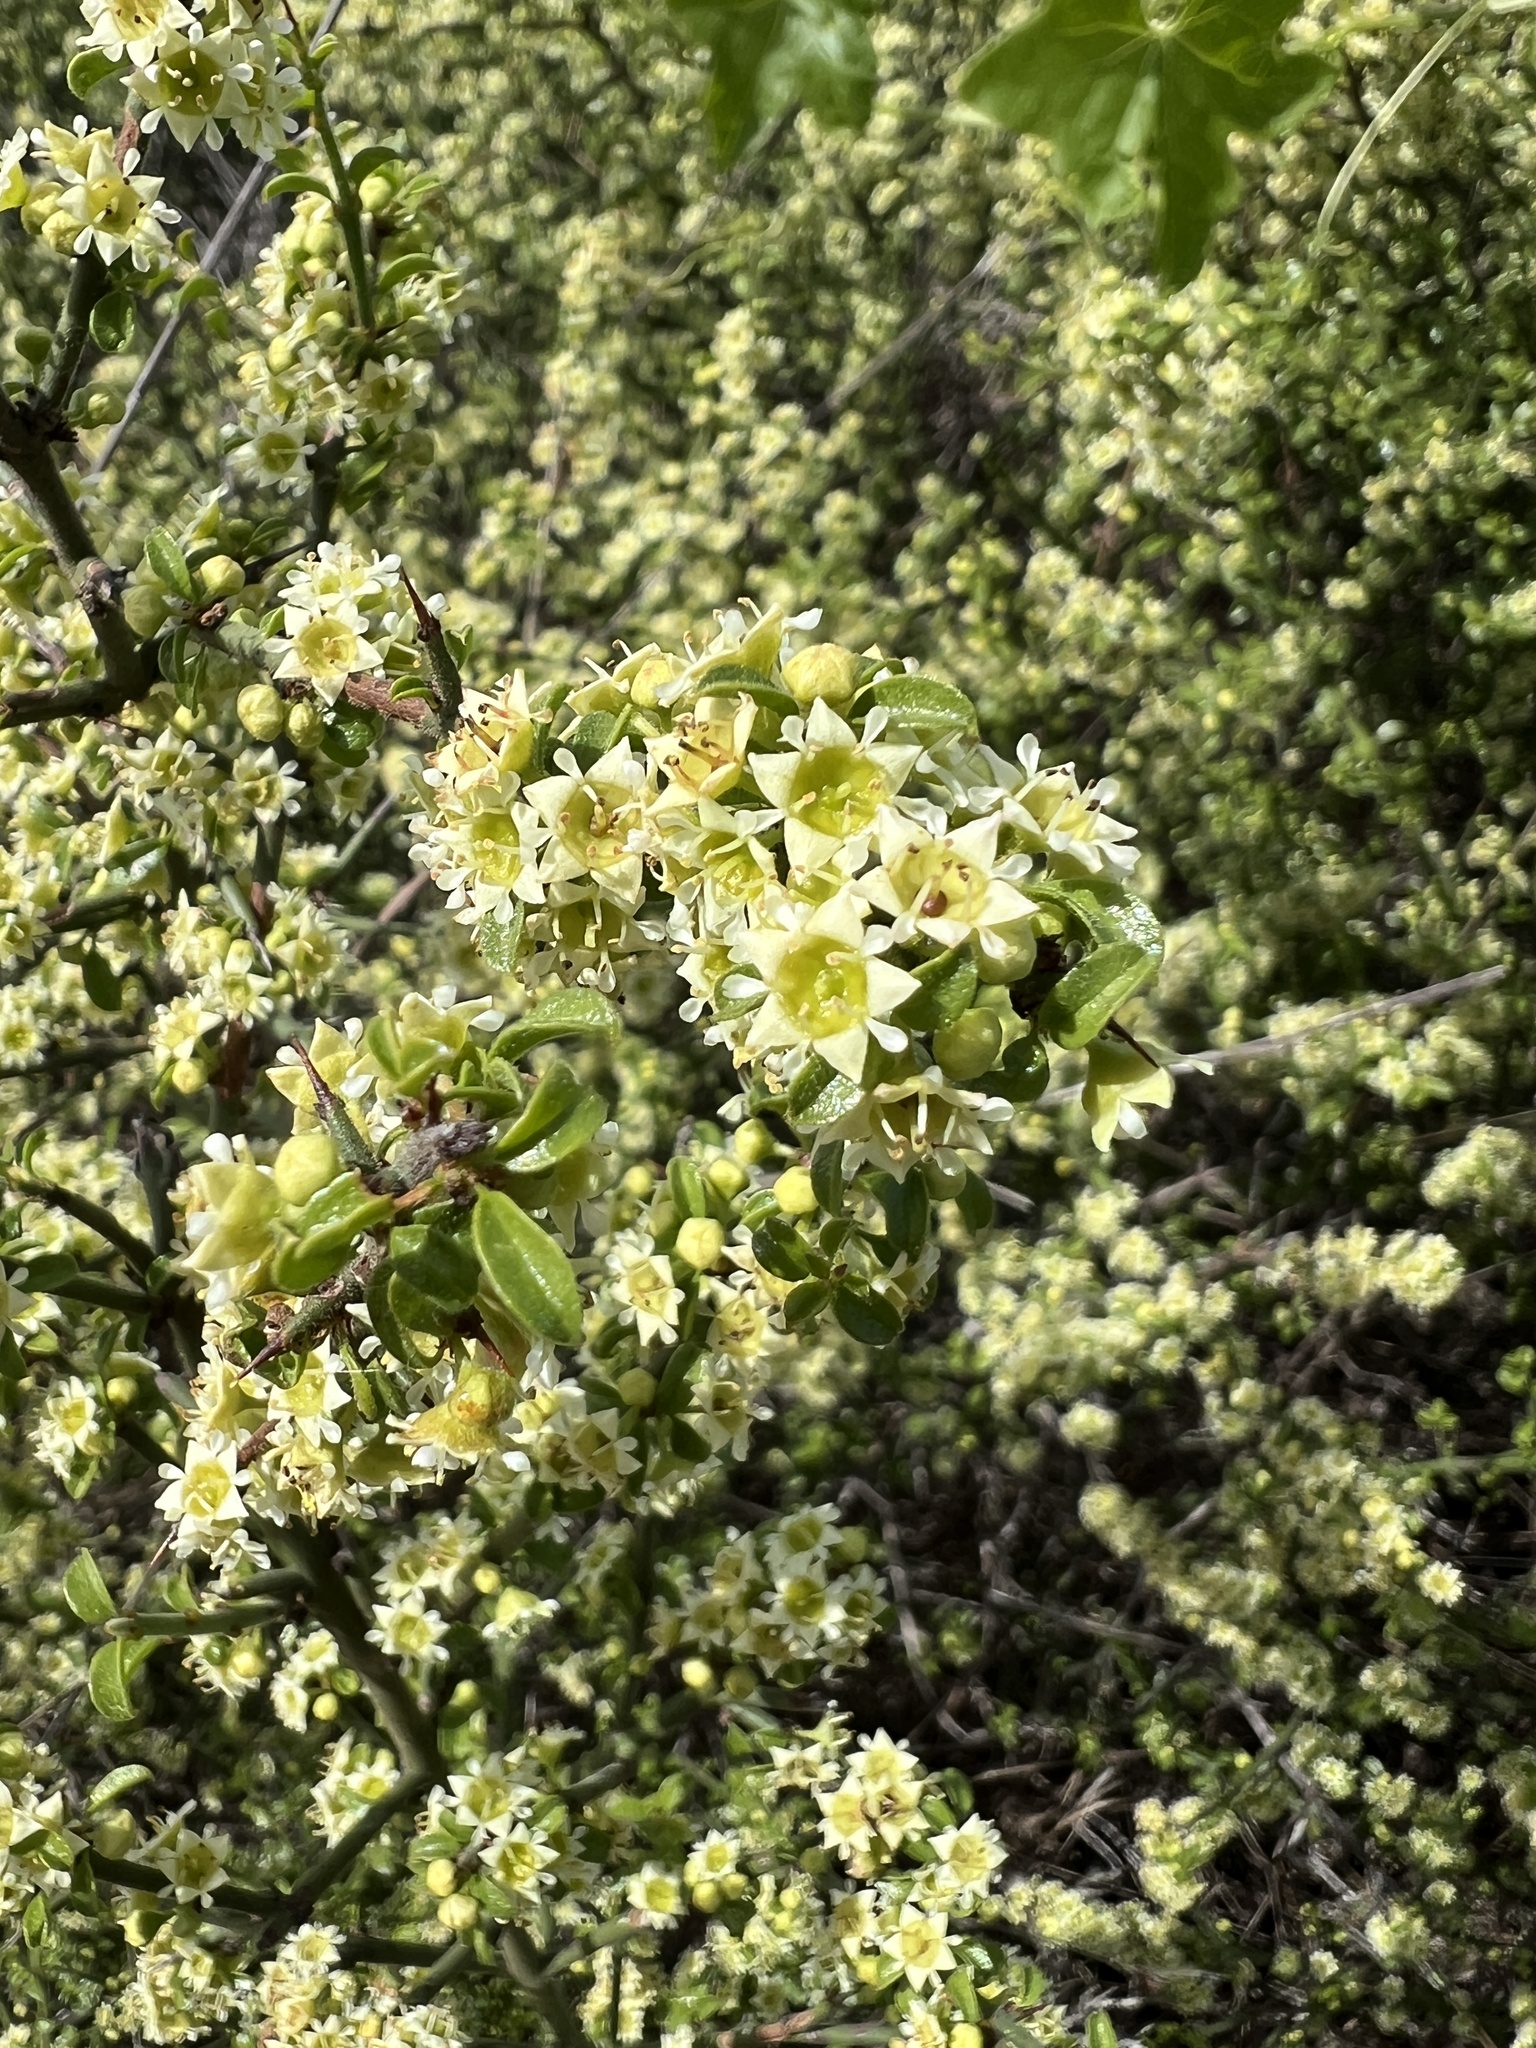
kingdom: Plantae
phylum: Tracheophyta
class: Magnoliopsida
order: Rosales
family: Rhamnaceae
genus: Adolphia
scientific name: Adolphia californica
